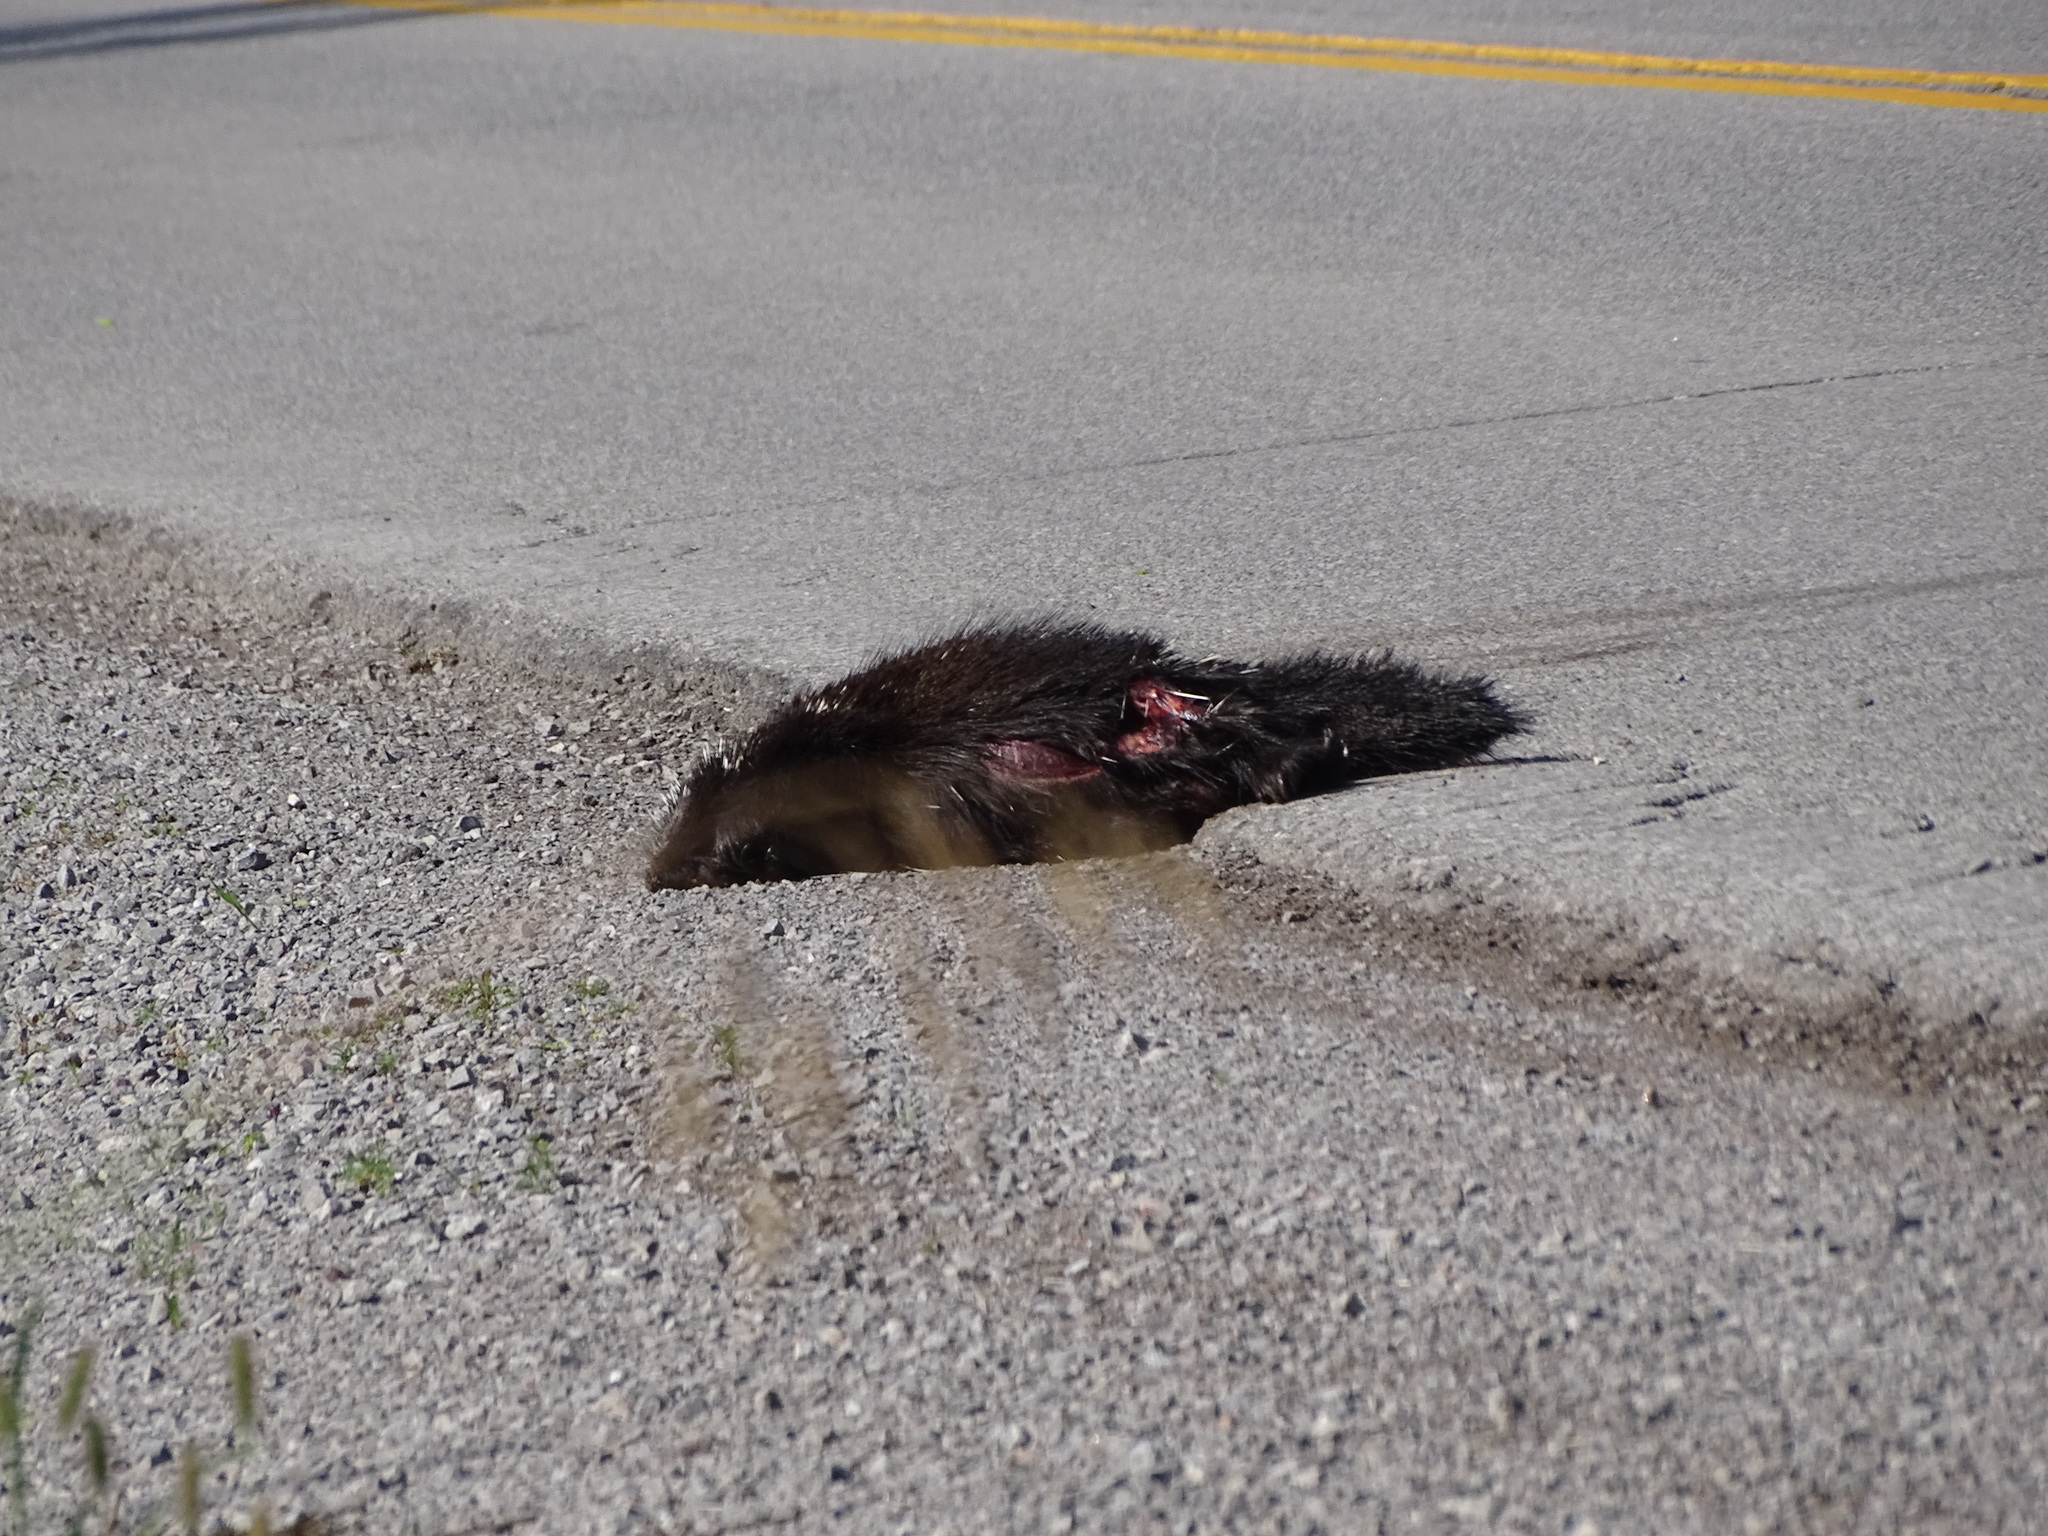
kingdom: Animalia
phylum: Chordata
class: Mammalia
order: Rodentia
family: Erethizontidae
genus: Erethizon
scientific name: Erethizon dorsatus
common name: North american porcupine
